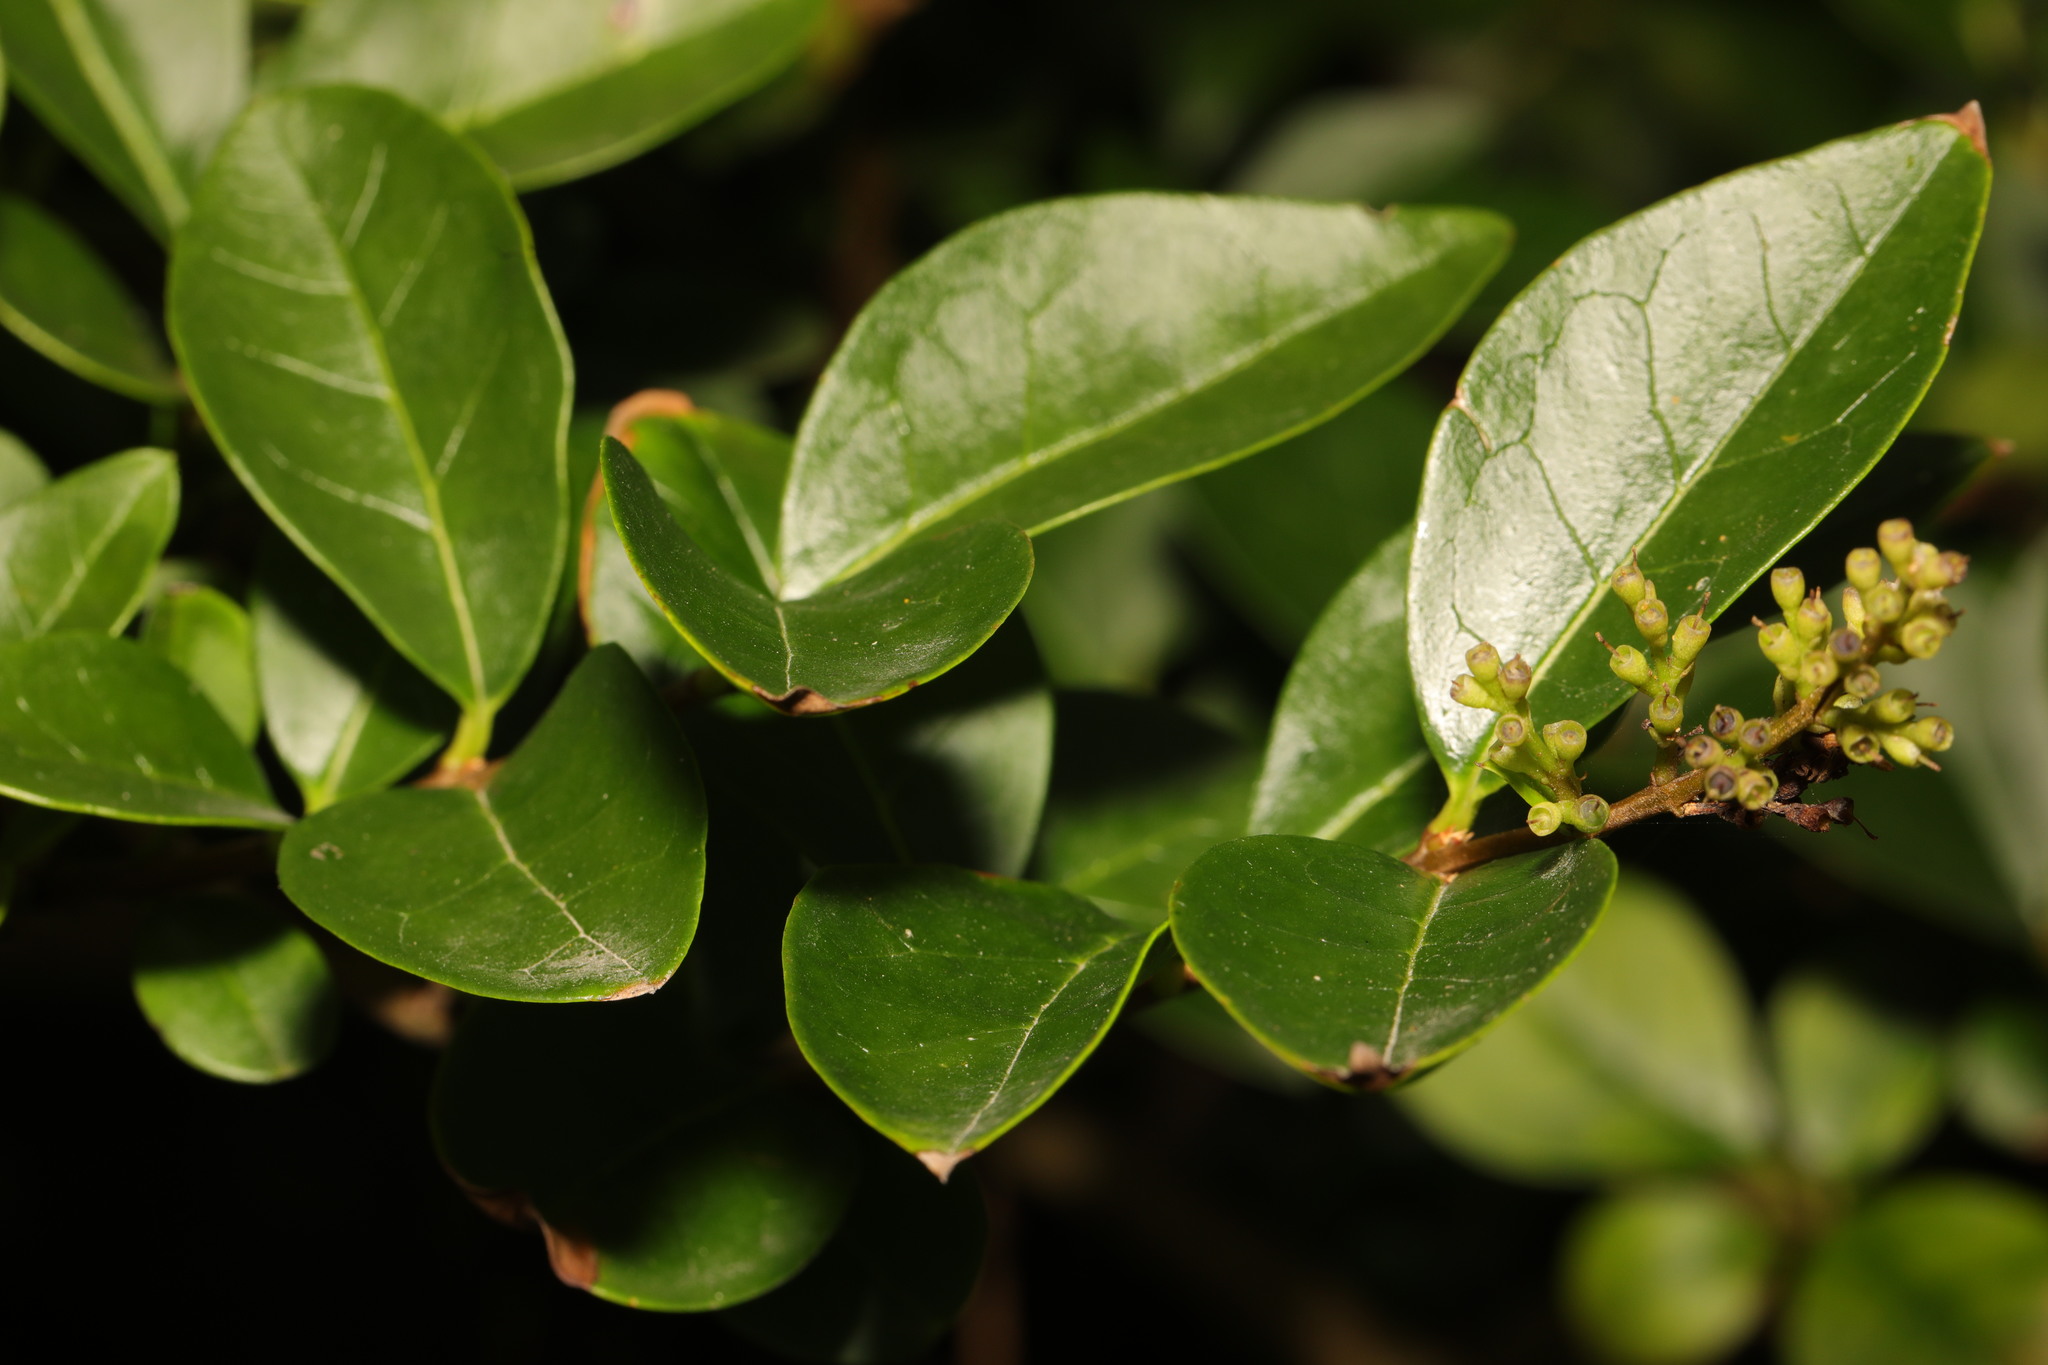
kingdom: Plantae
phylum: Tracheophyta
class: Magnoliopsida
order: Lamiales
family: Oleaceae
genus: Ligustrum
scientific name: Ligustrum ovalifolium
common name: California privet
